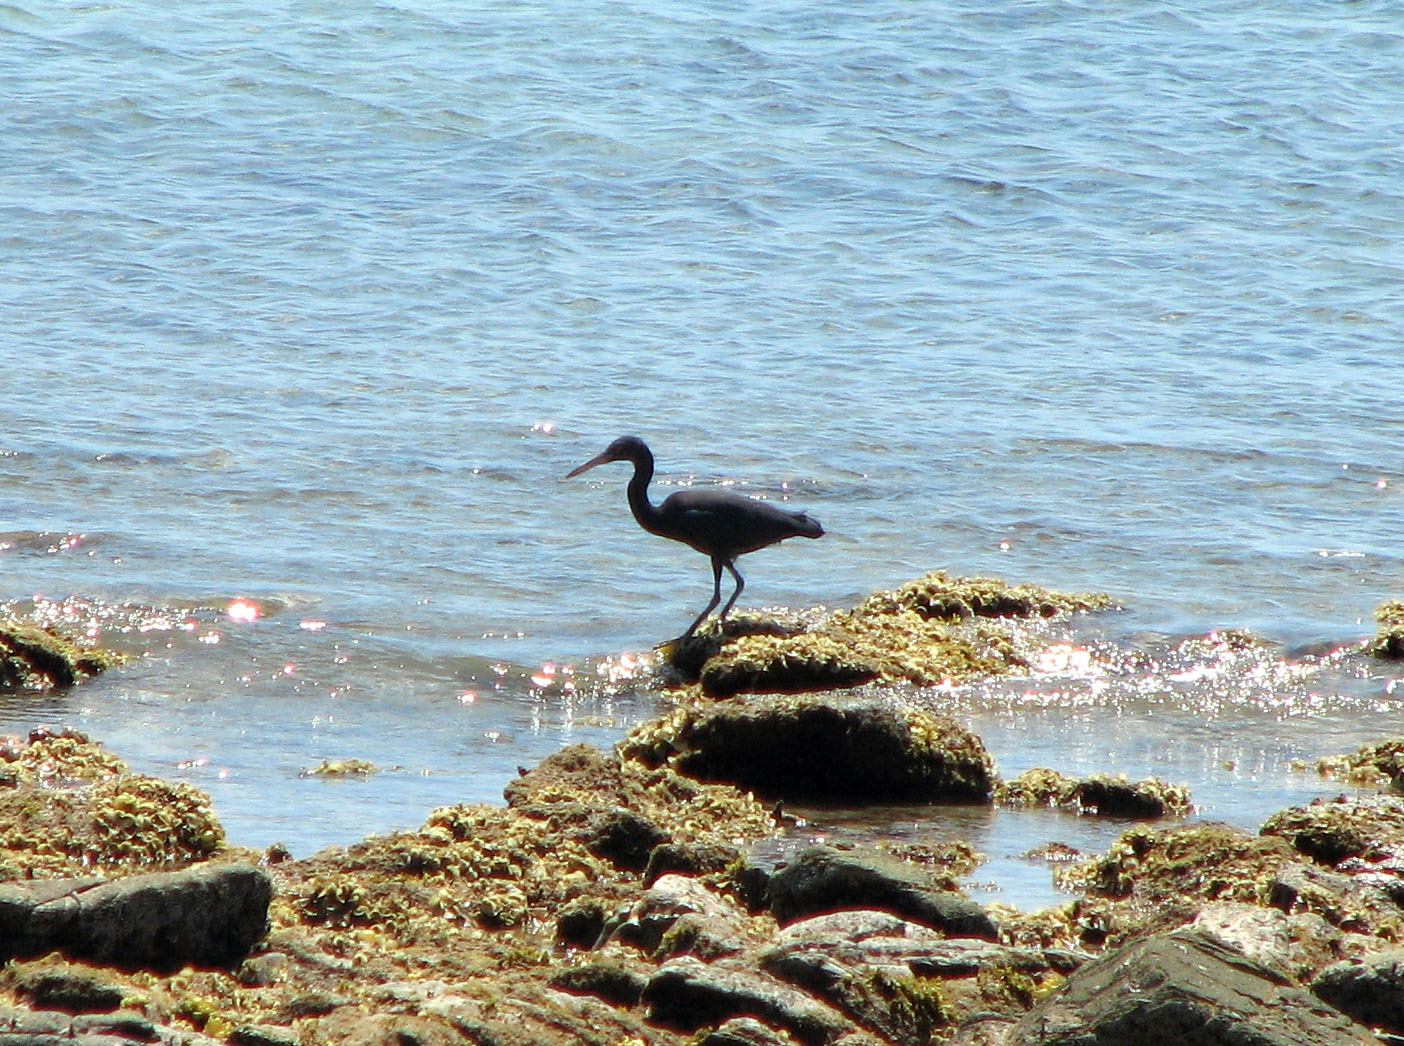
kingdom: Animalia
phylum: Chordata
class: Aves
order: Pelecaniformes
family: Ardeidae
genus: Egretta
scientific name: Egretta sacra
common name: Pacific reef heron
